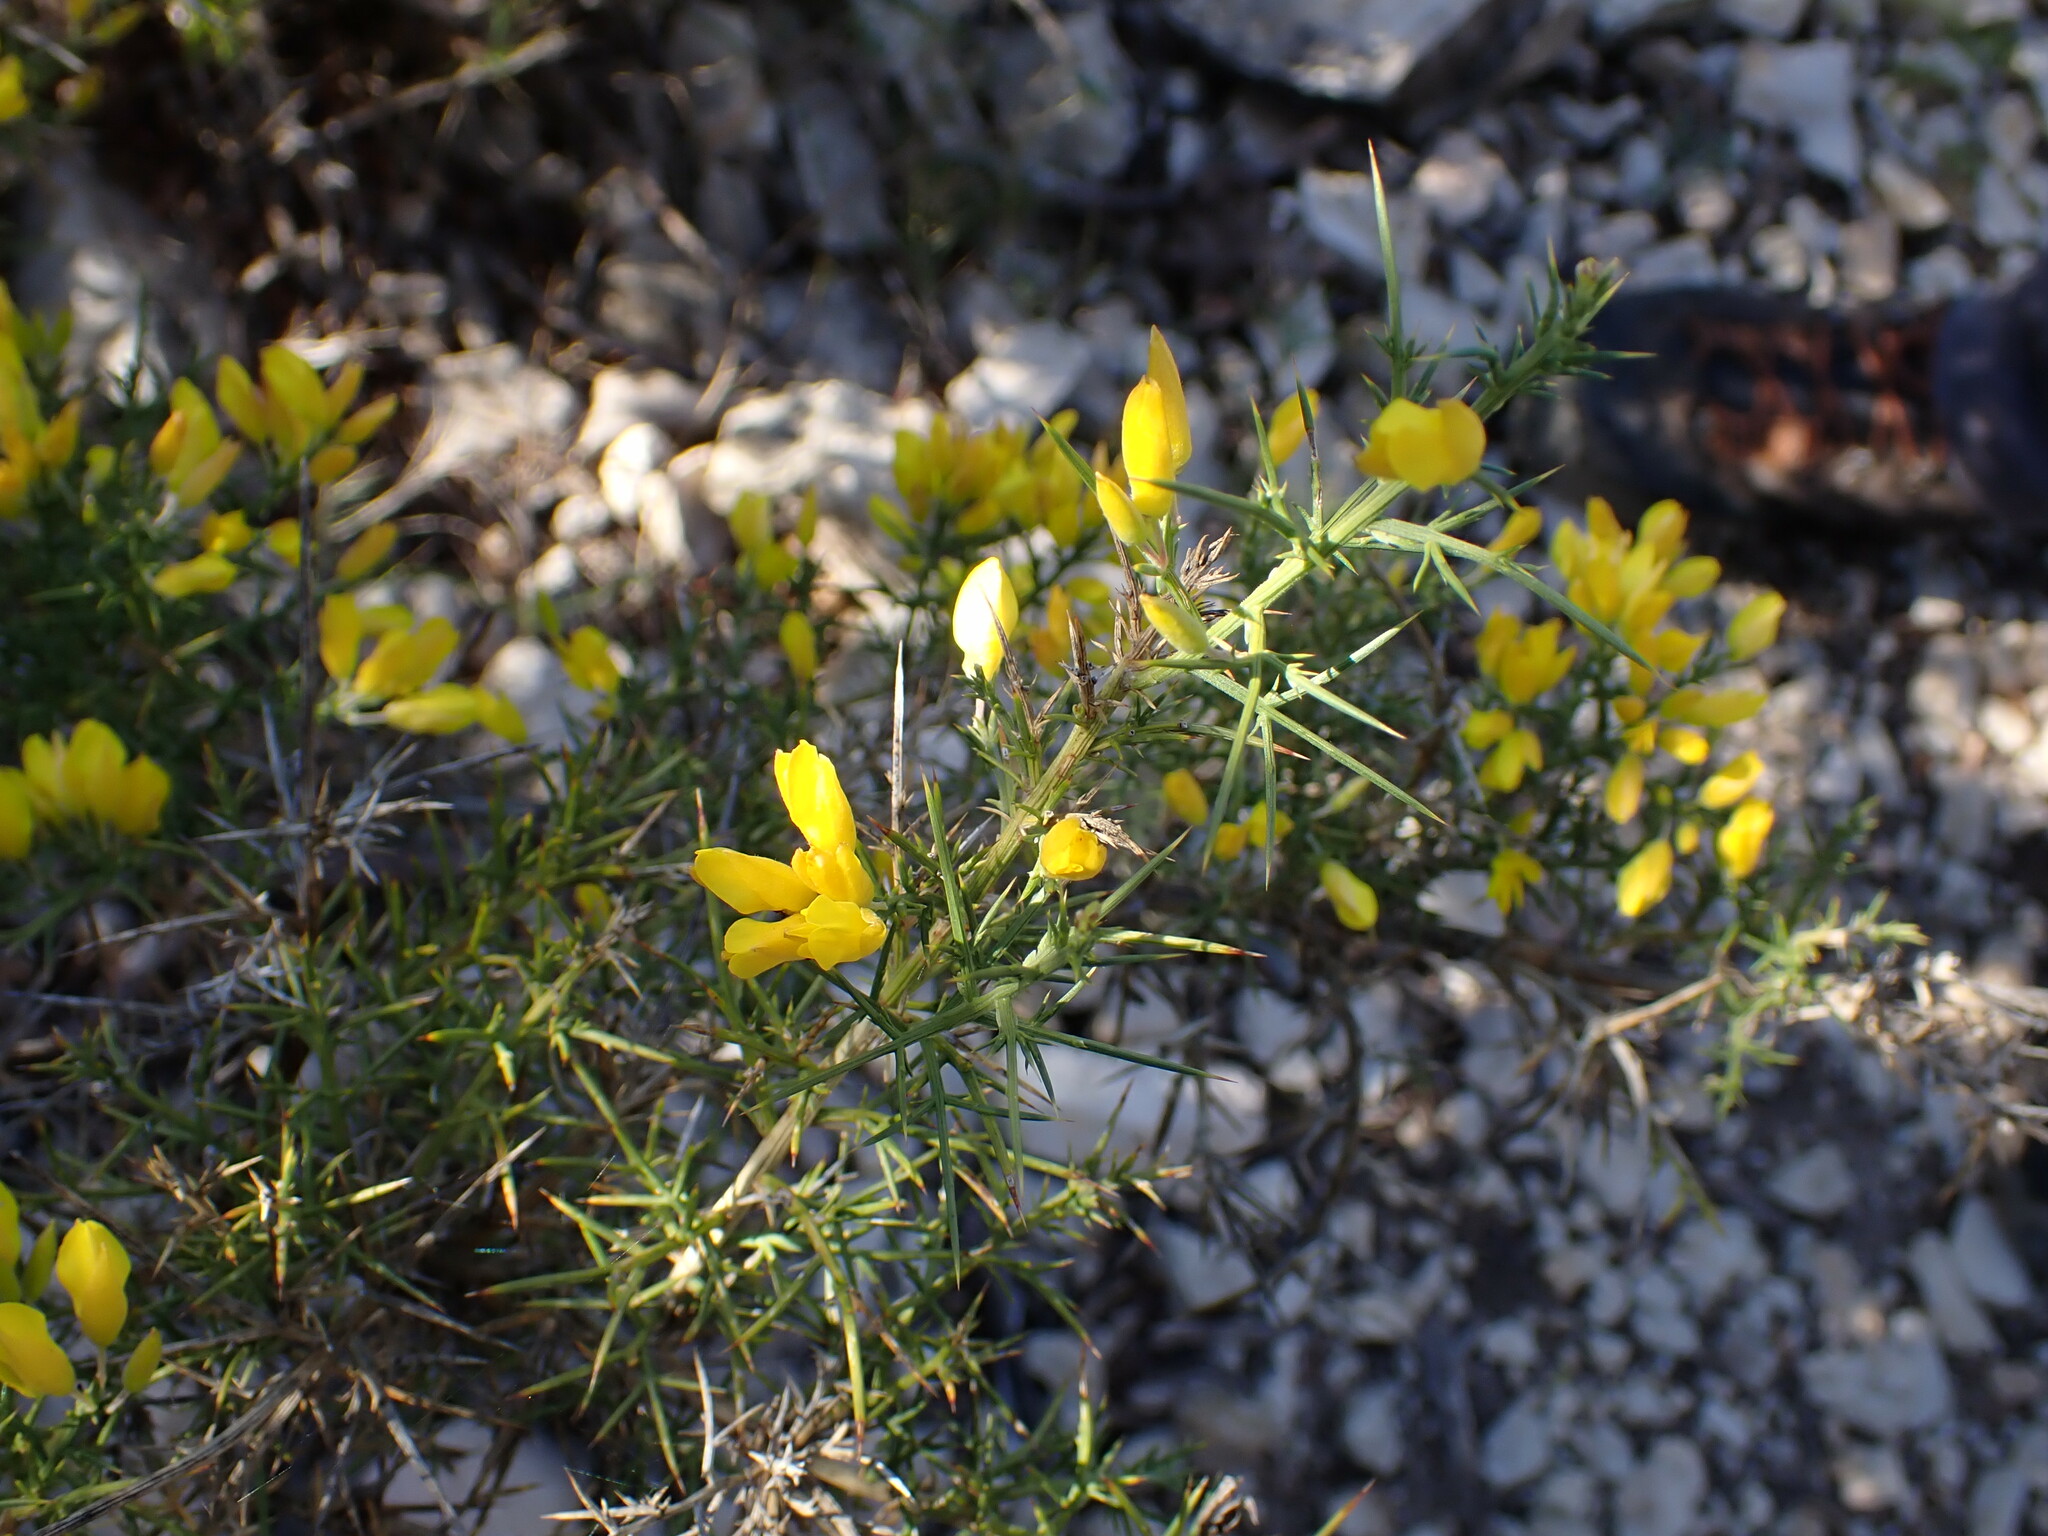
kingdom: Plantae
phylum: Tracheophyta
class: Magnoliopsida
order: Fabales
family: Fabaceae
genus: Ulex
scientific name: Ulex parviflorus
